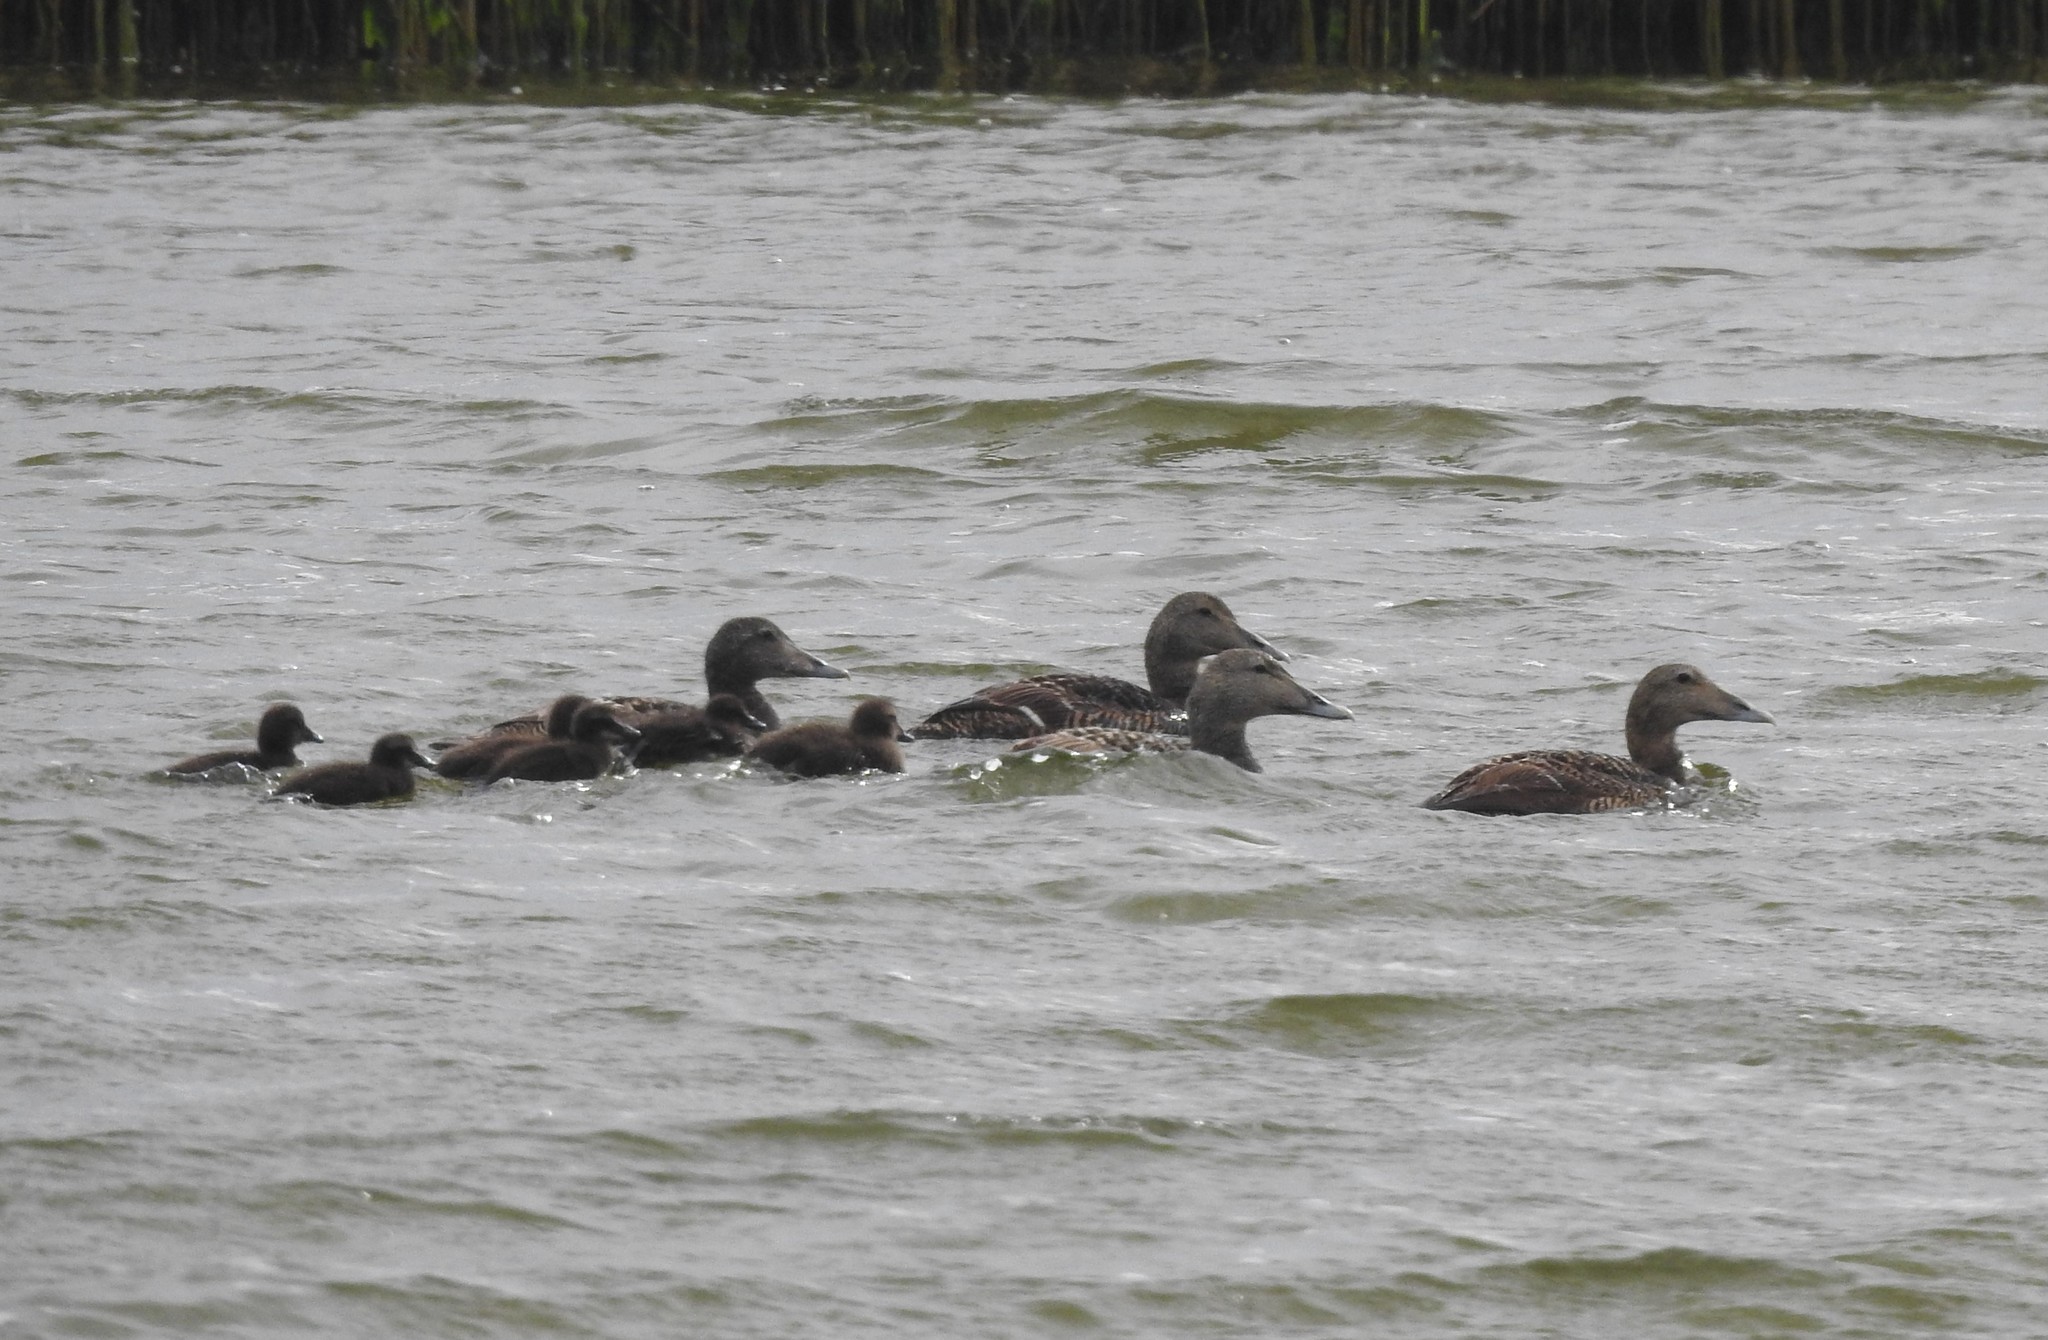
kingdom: Animalia
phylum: Chordata
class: Aves
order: Anseriformes
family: Anatidae
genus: Somateria
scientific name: Somateria mollissima
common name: Common eider
